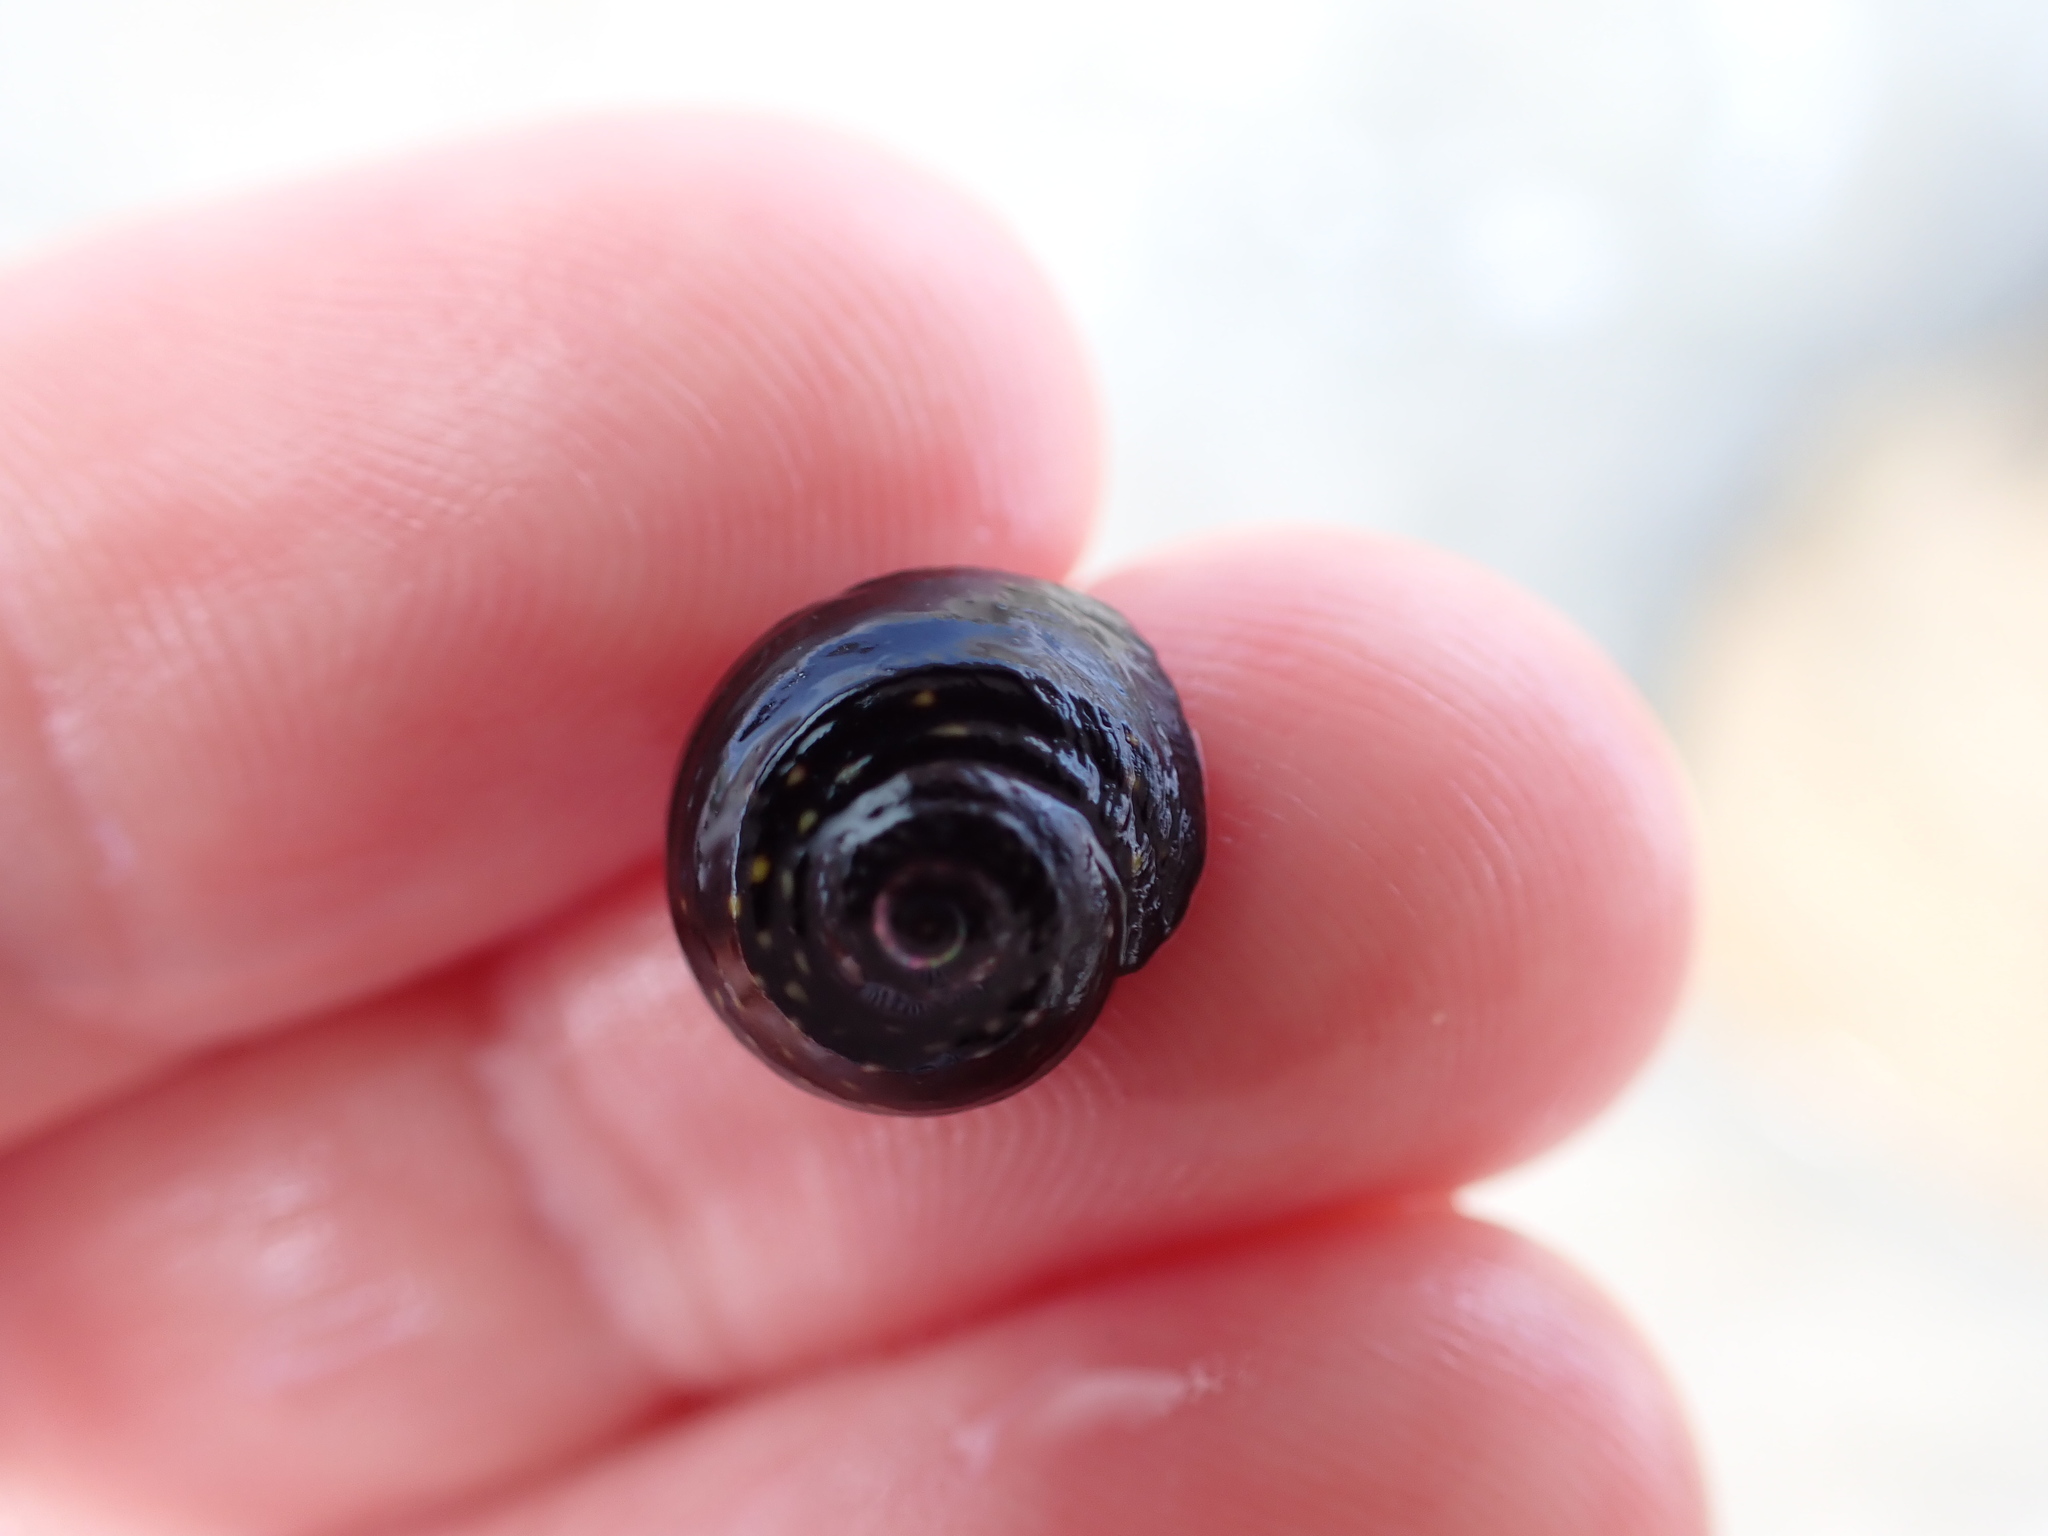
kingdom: Animalia
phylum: Mollusca
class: Gastropoda
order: Trochida
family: Trochidae
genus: Diloma
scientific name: Diloma aridum
